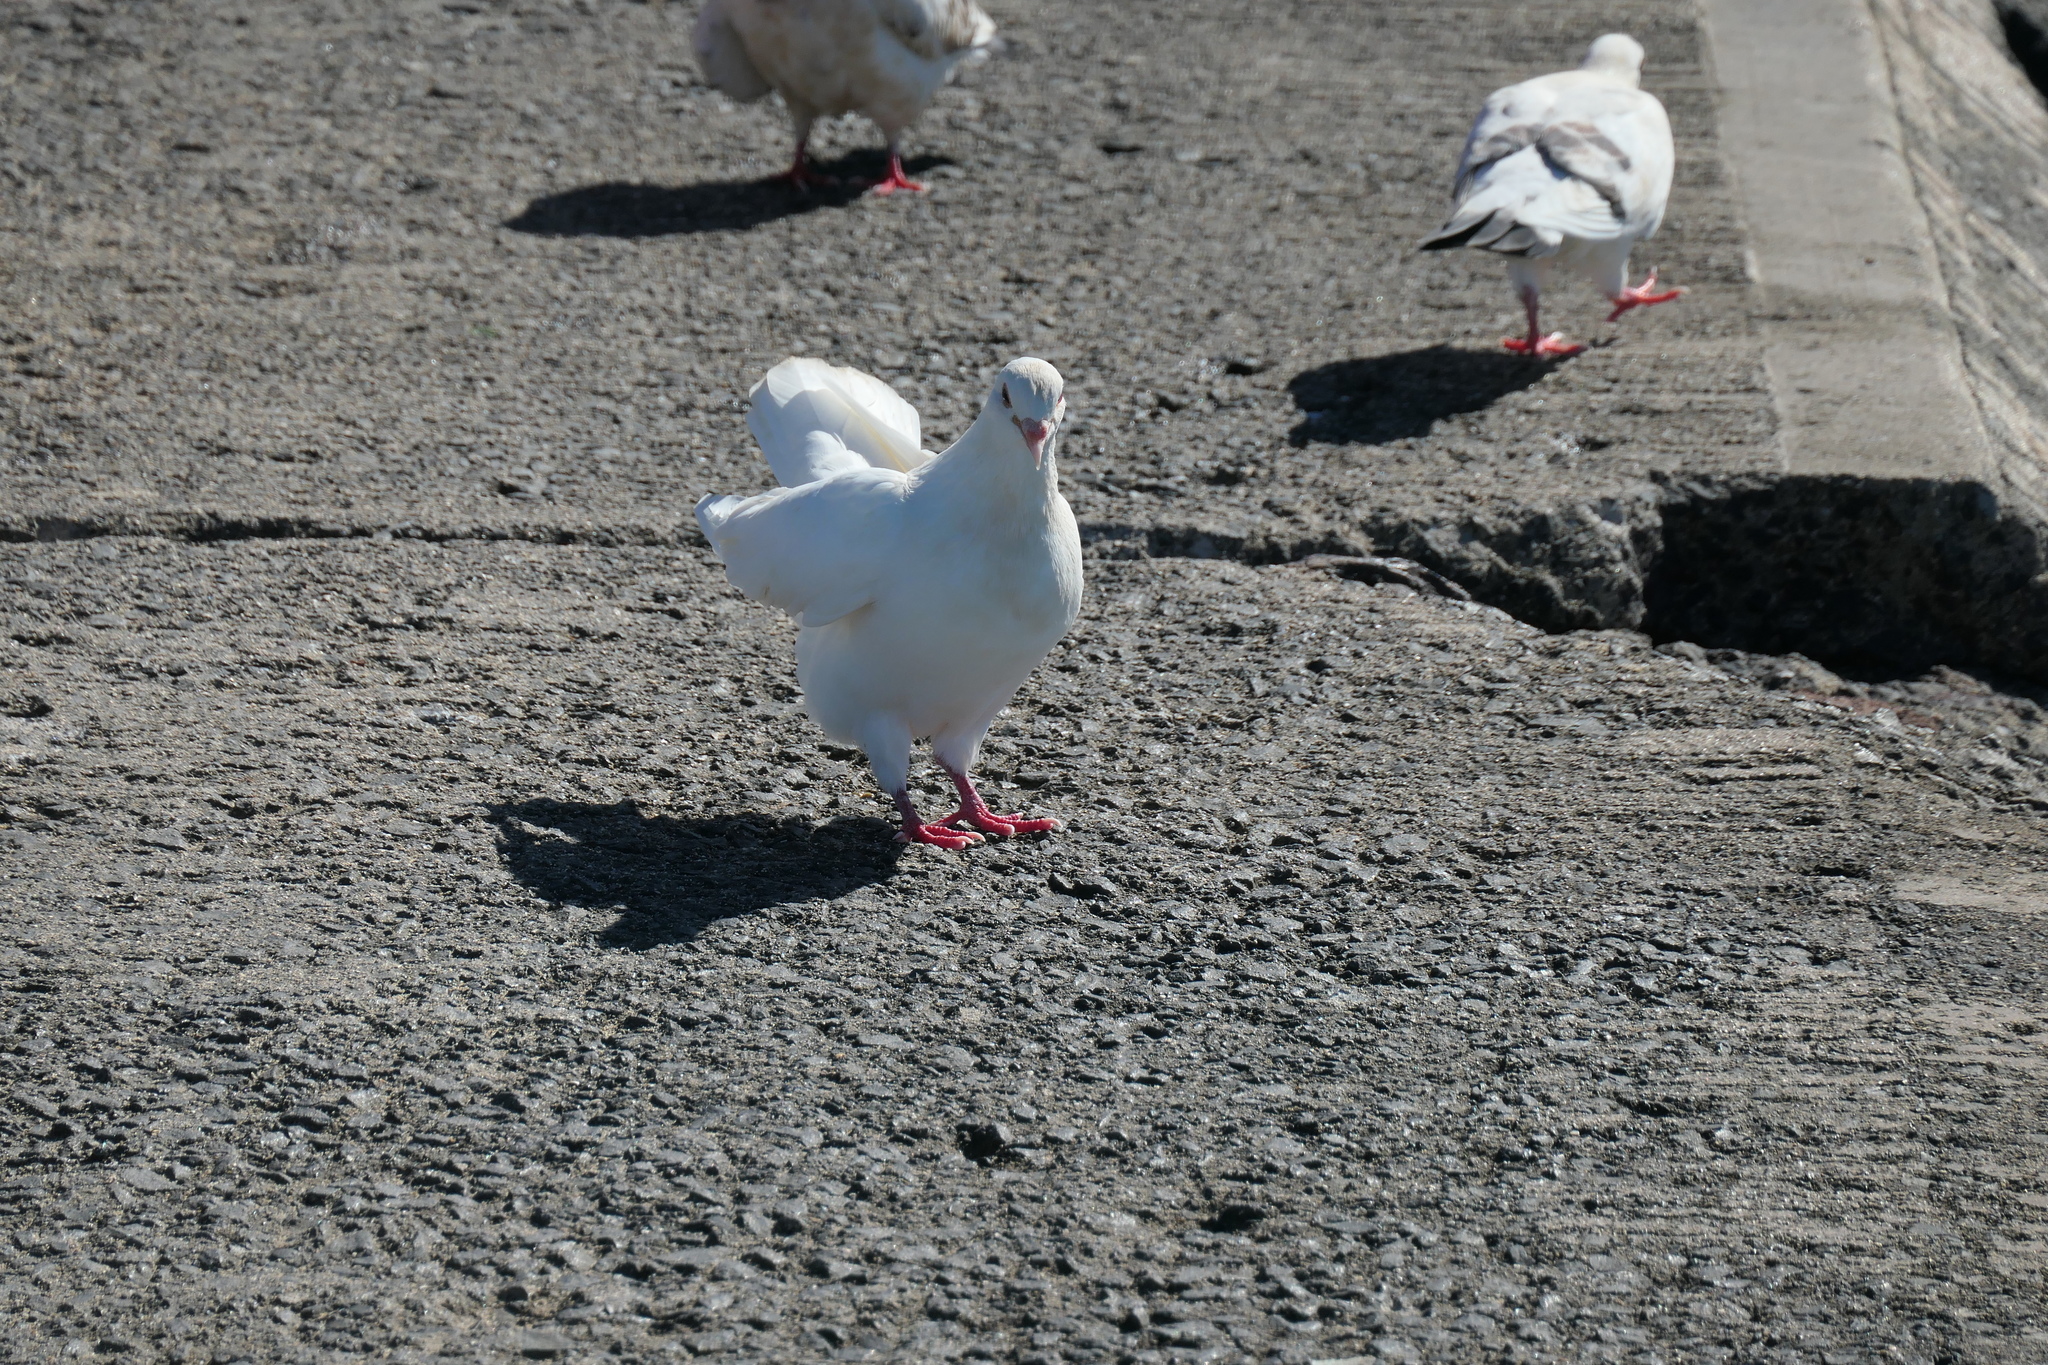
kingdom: Animalia
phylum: Chordata
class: Aves
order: Columbiformes
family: Columbidae
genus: Columba
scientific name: Columba livia
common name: Rock pigeon
